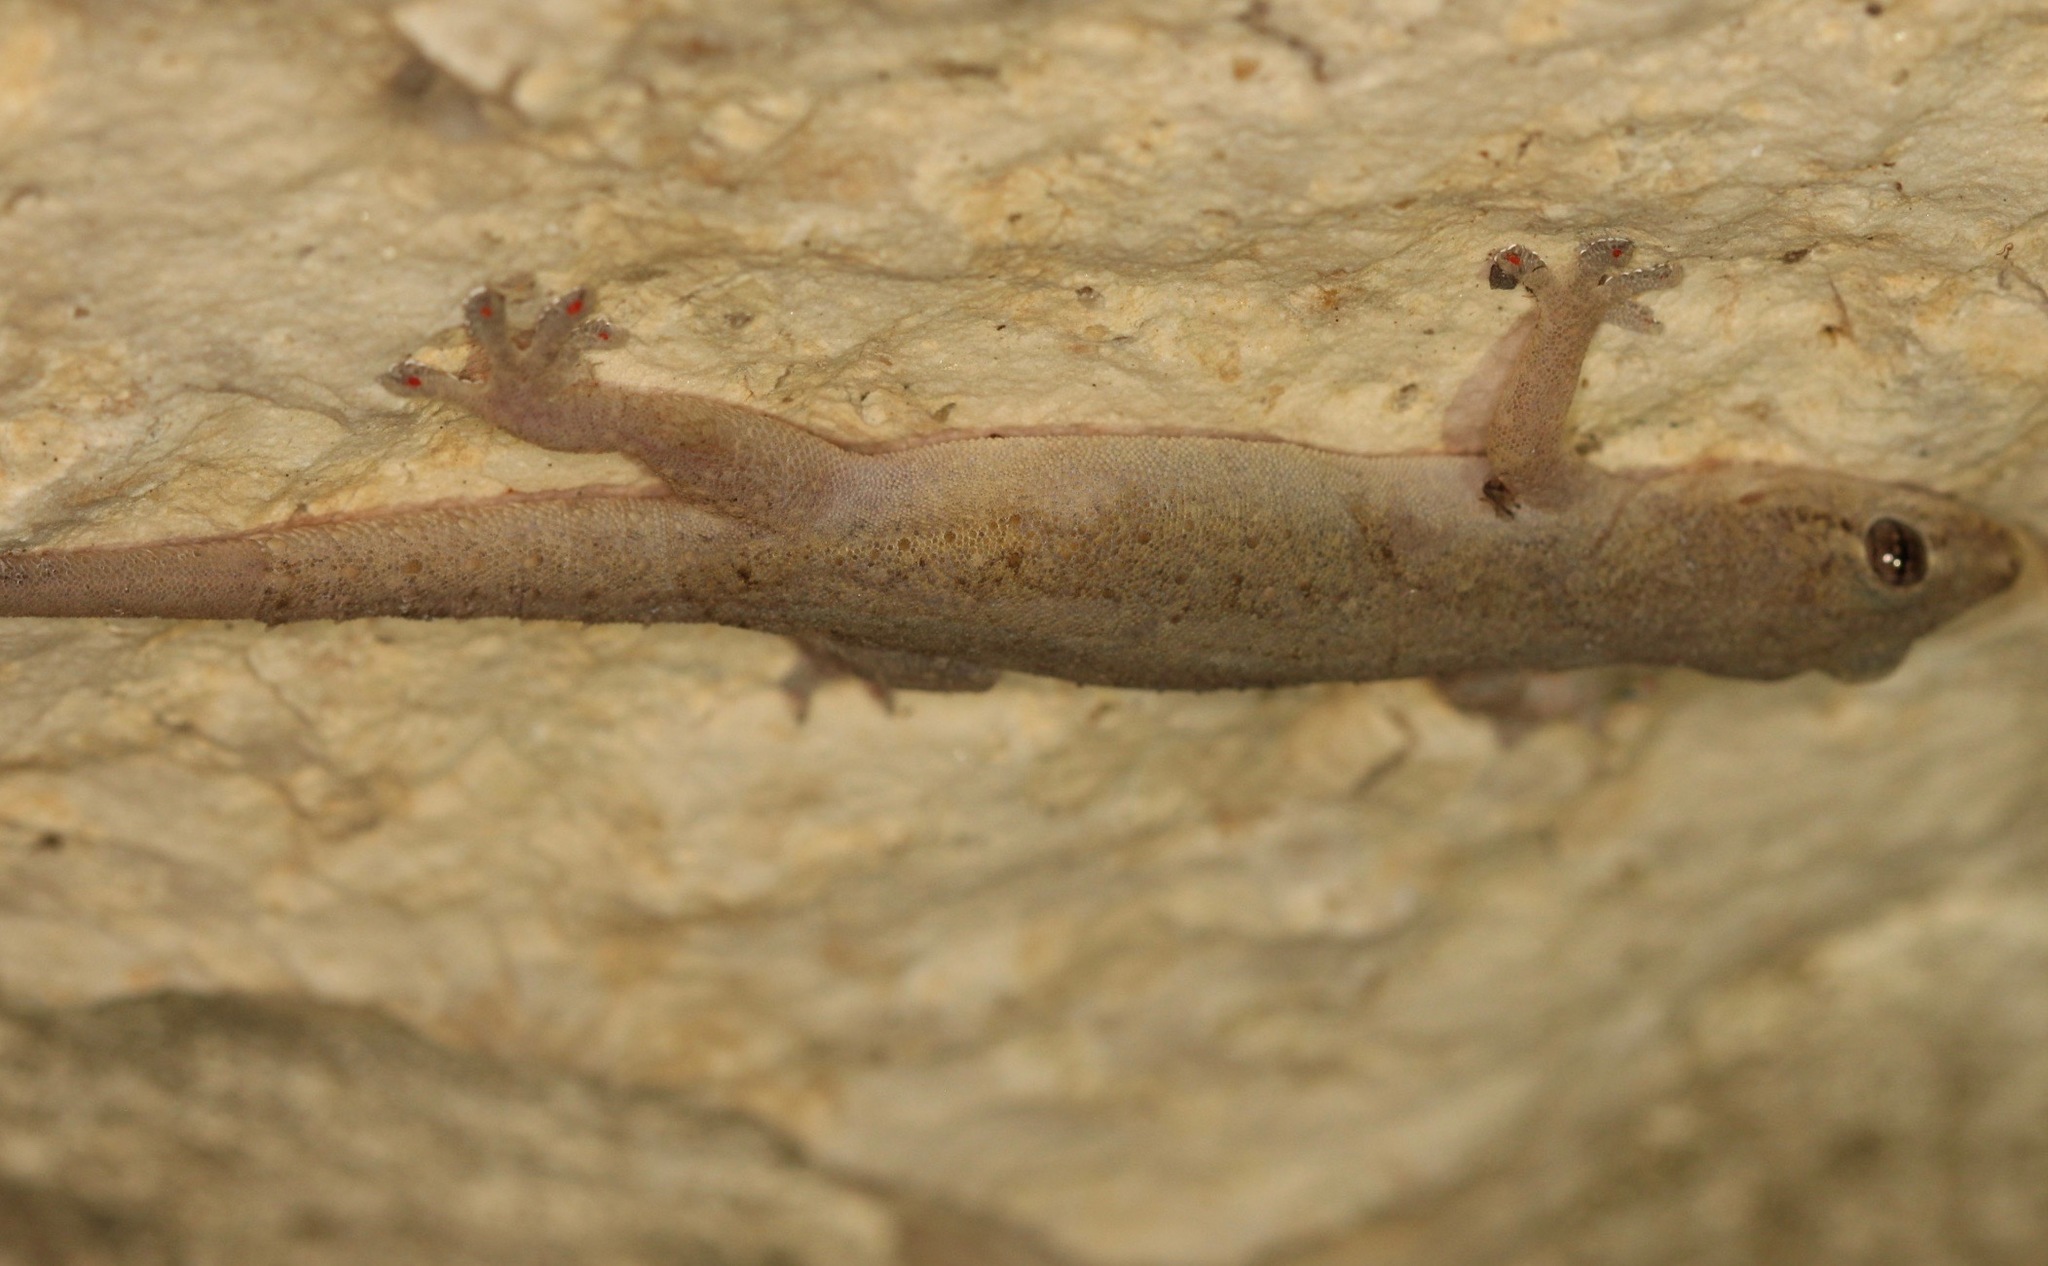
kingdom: Animalia
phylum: Chordata
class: Squamata
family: Gekkonidae
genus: Hemidactylus
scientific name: Hemidactylus frenatus
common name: Common house gecko
